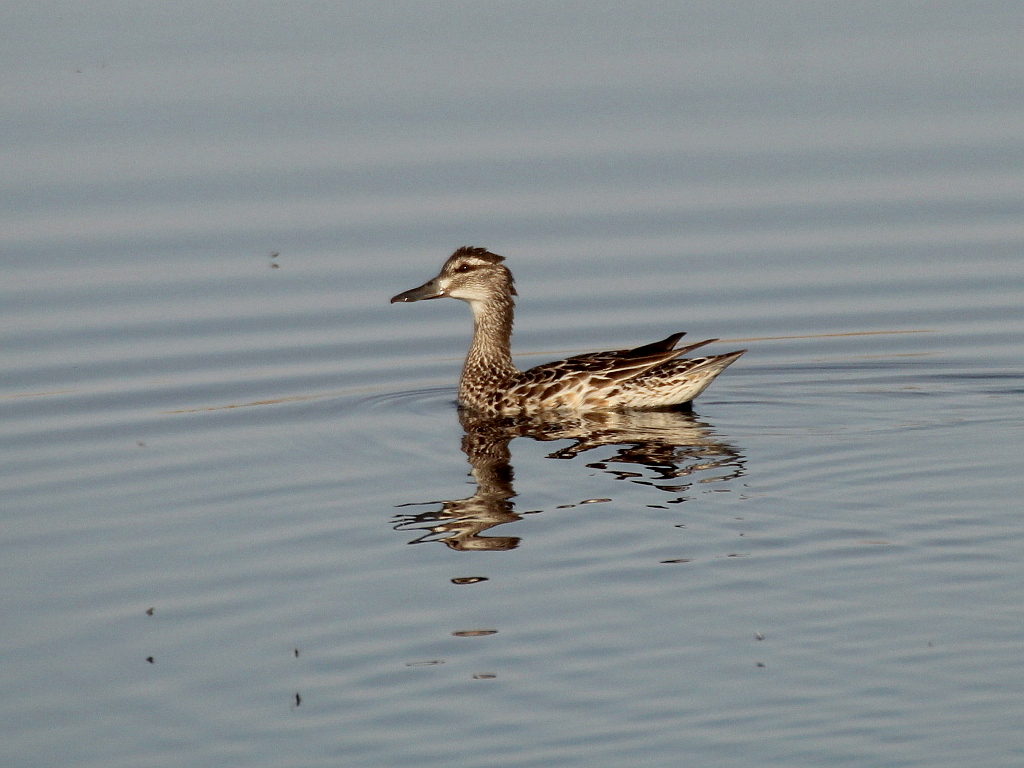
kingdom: Animalia
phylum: Chordata
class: Aves
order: Anseriformes
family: Anatidae
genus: Spatula
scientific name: Spatula querquedula
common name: Garganey
